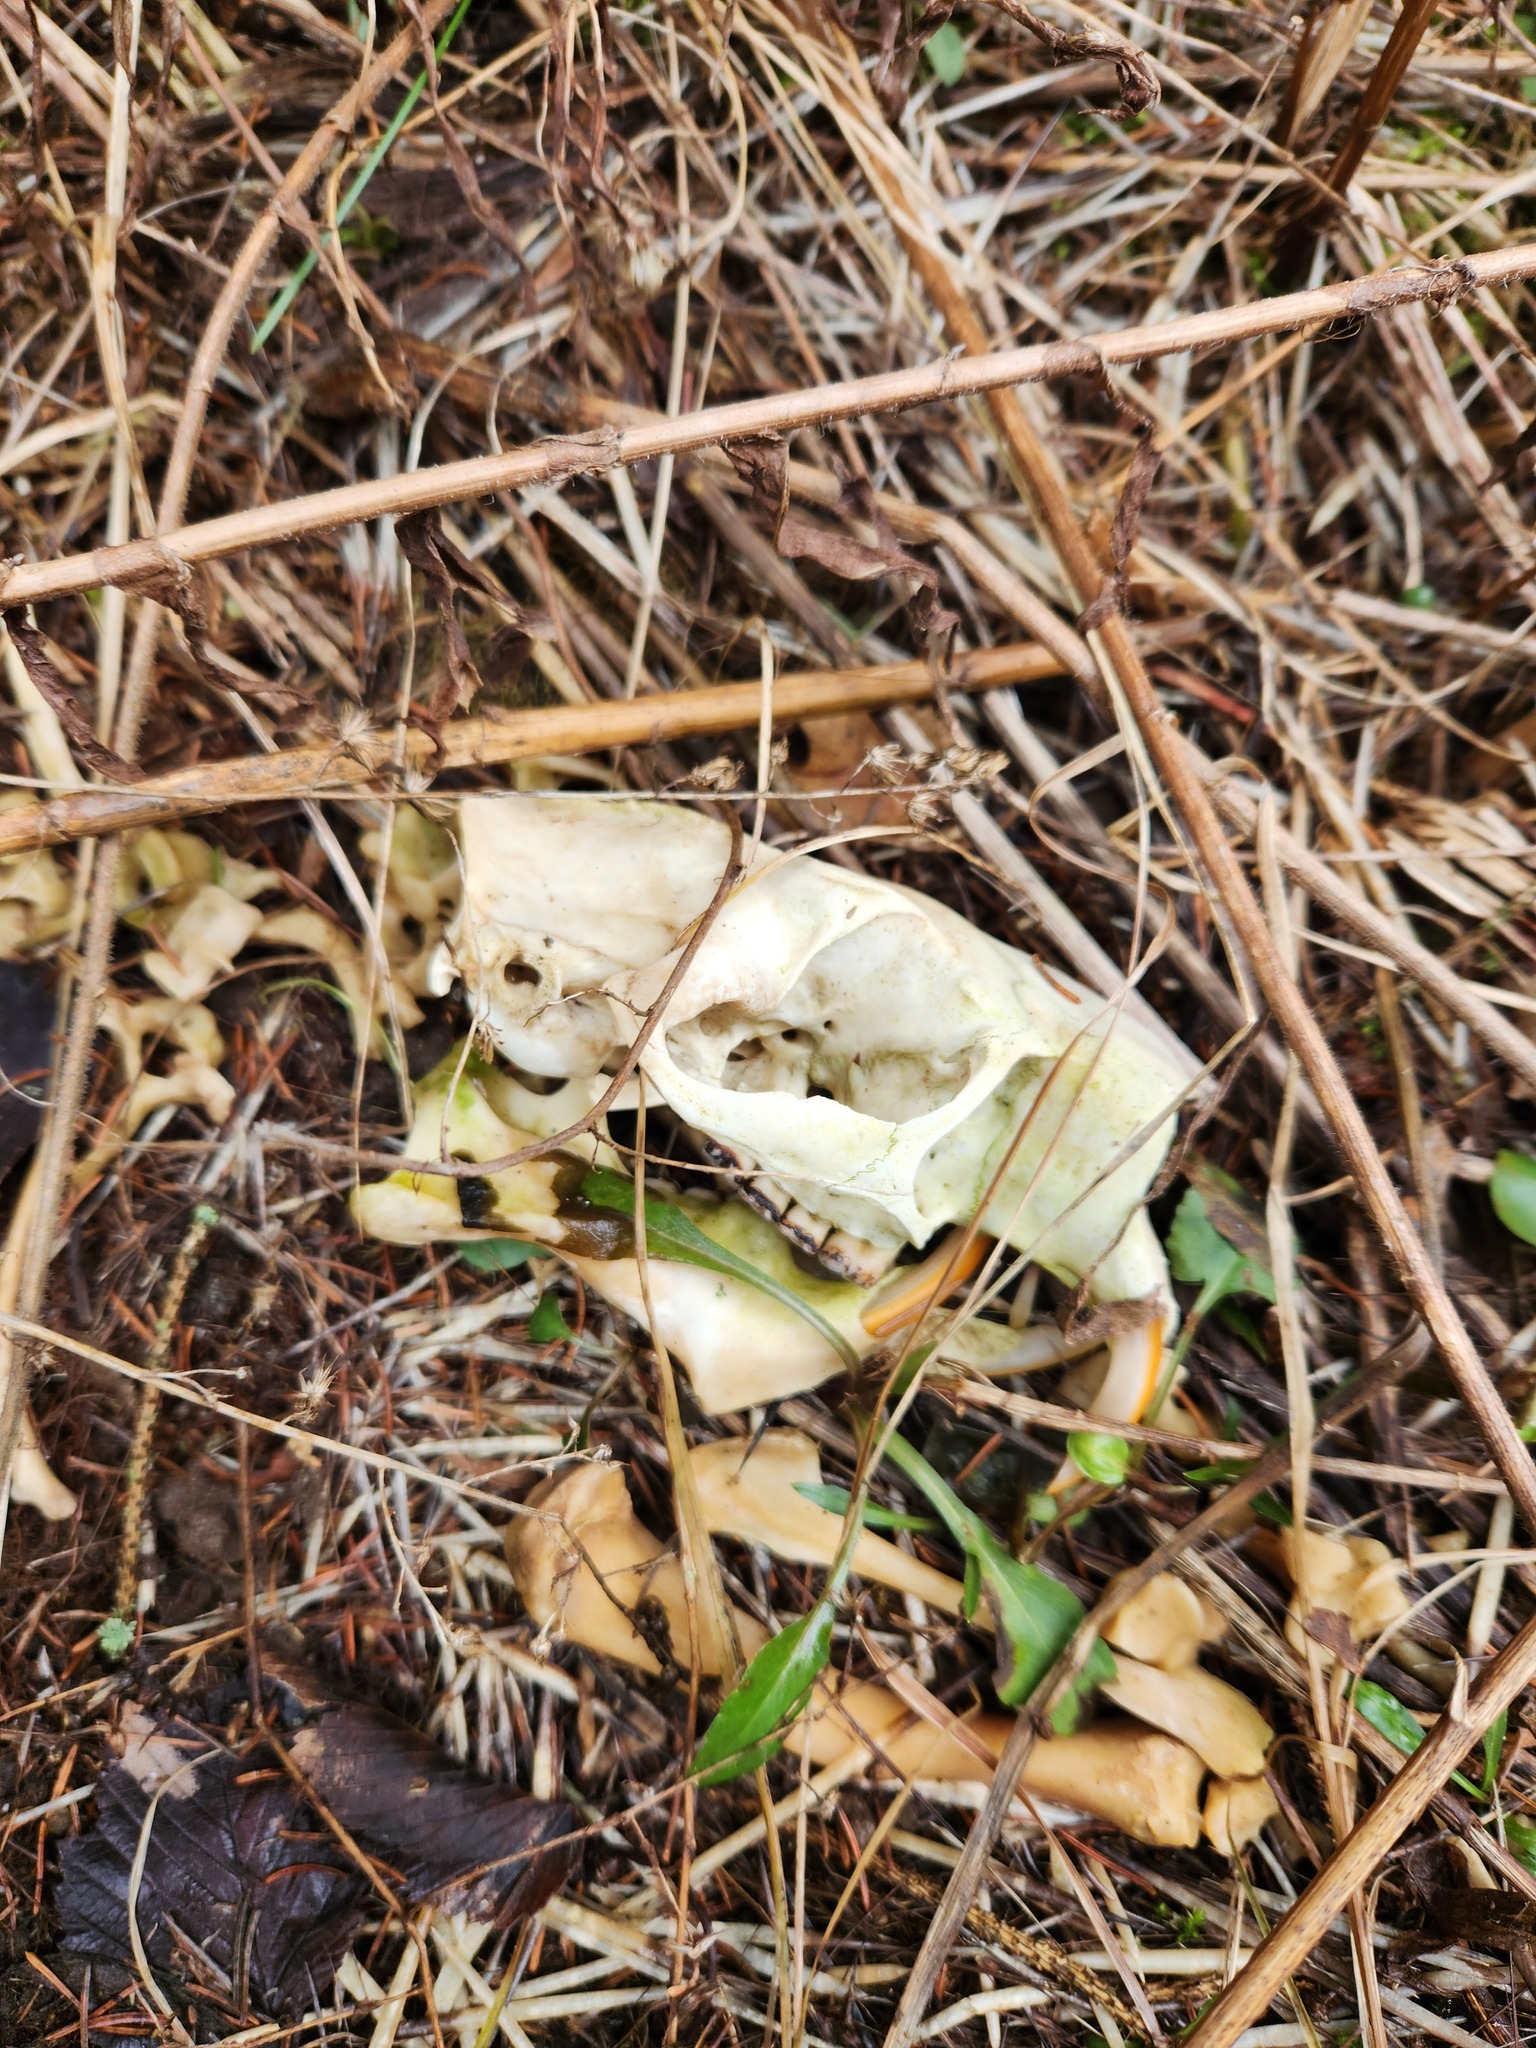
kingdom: Animalia
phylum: Chordata
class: Mammalia
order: Rodentia
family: Erethizontidae
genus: Erethizon
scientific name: Erethizon dorsatus
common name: North american porcupine
